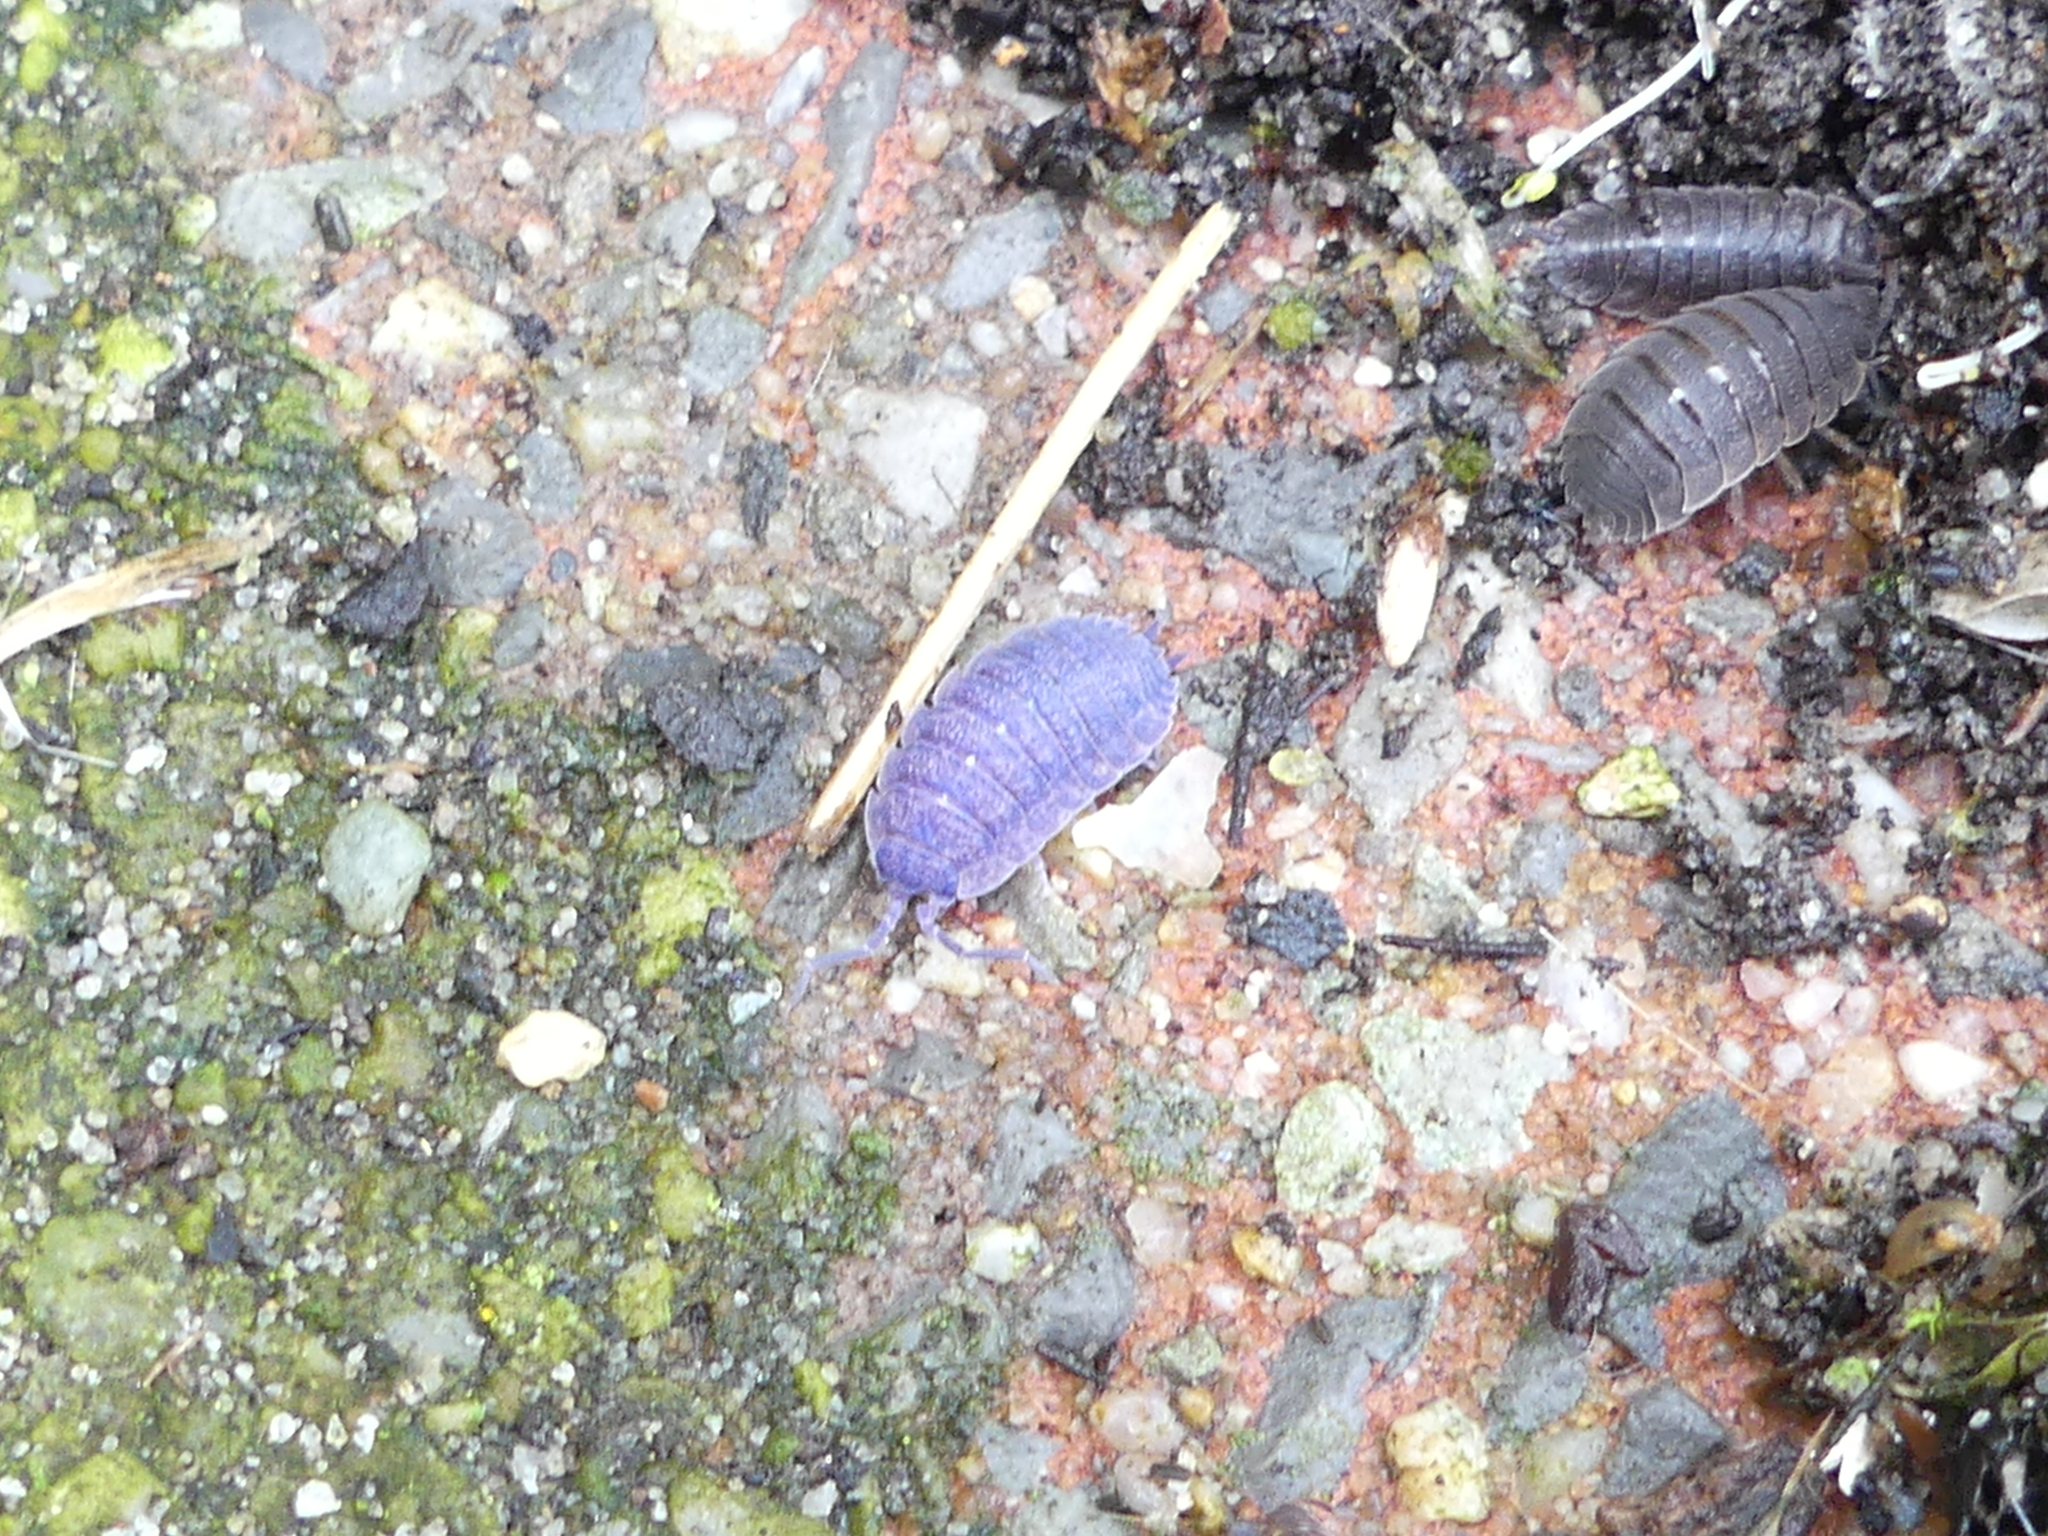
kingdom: Viruses
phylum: Nucleocytoviricota
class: Megaviricetes
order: Pimascovirales
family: Iridoviridae
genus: Iridovirus
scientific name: Iridovirus Invertebrate iridescent virus 31
